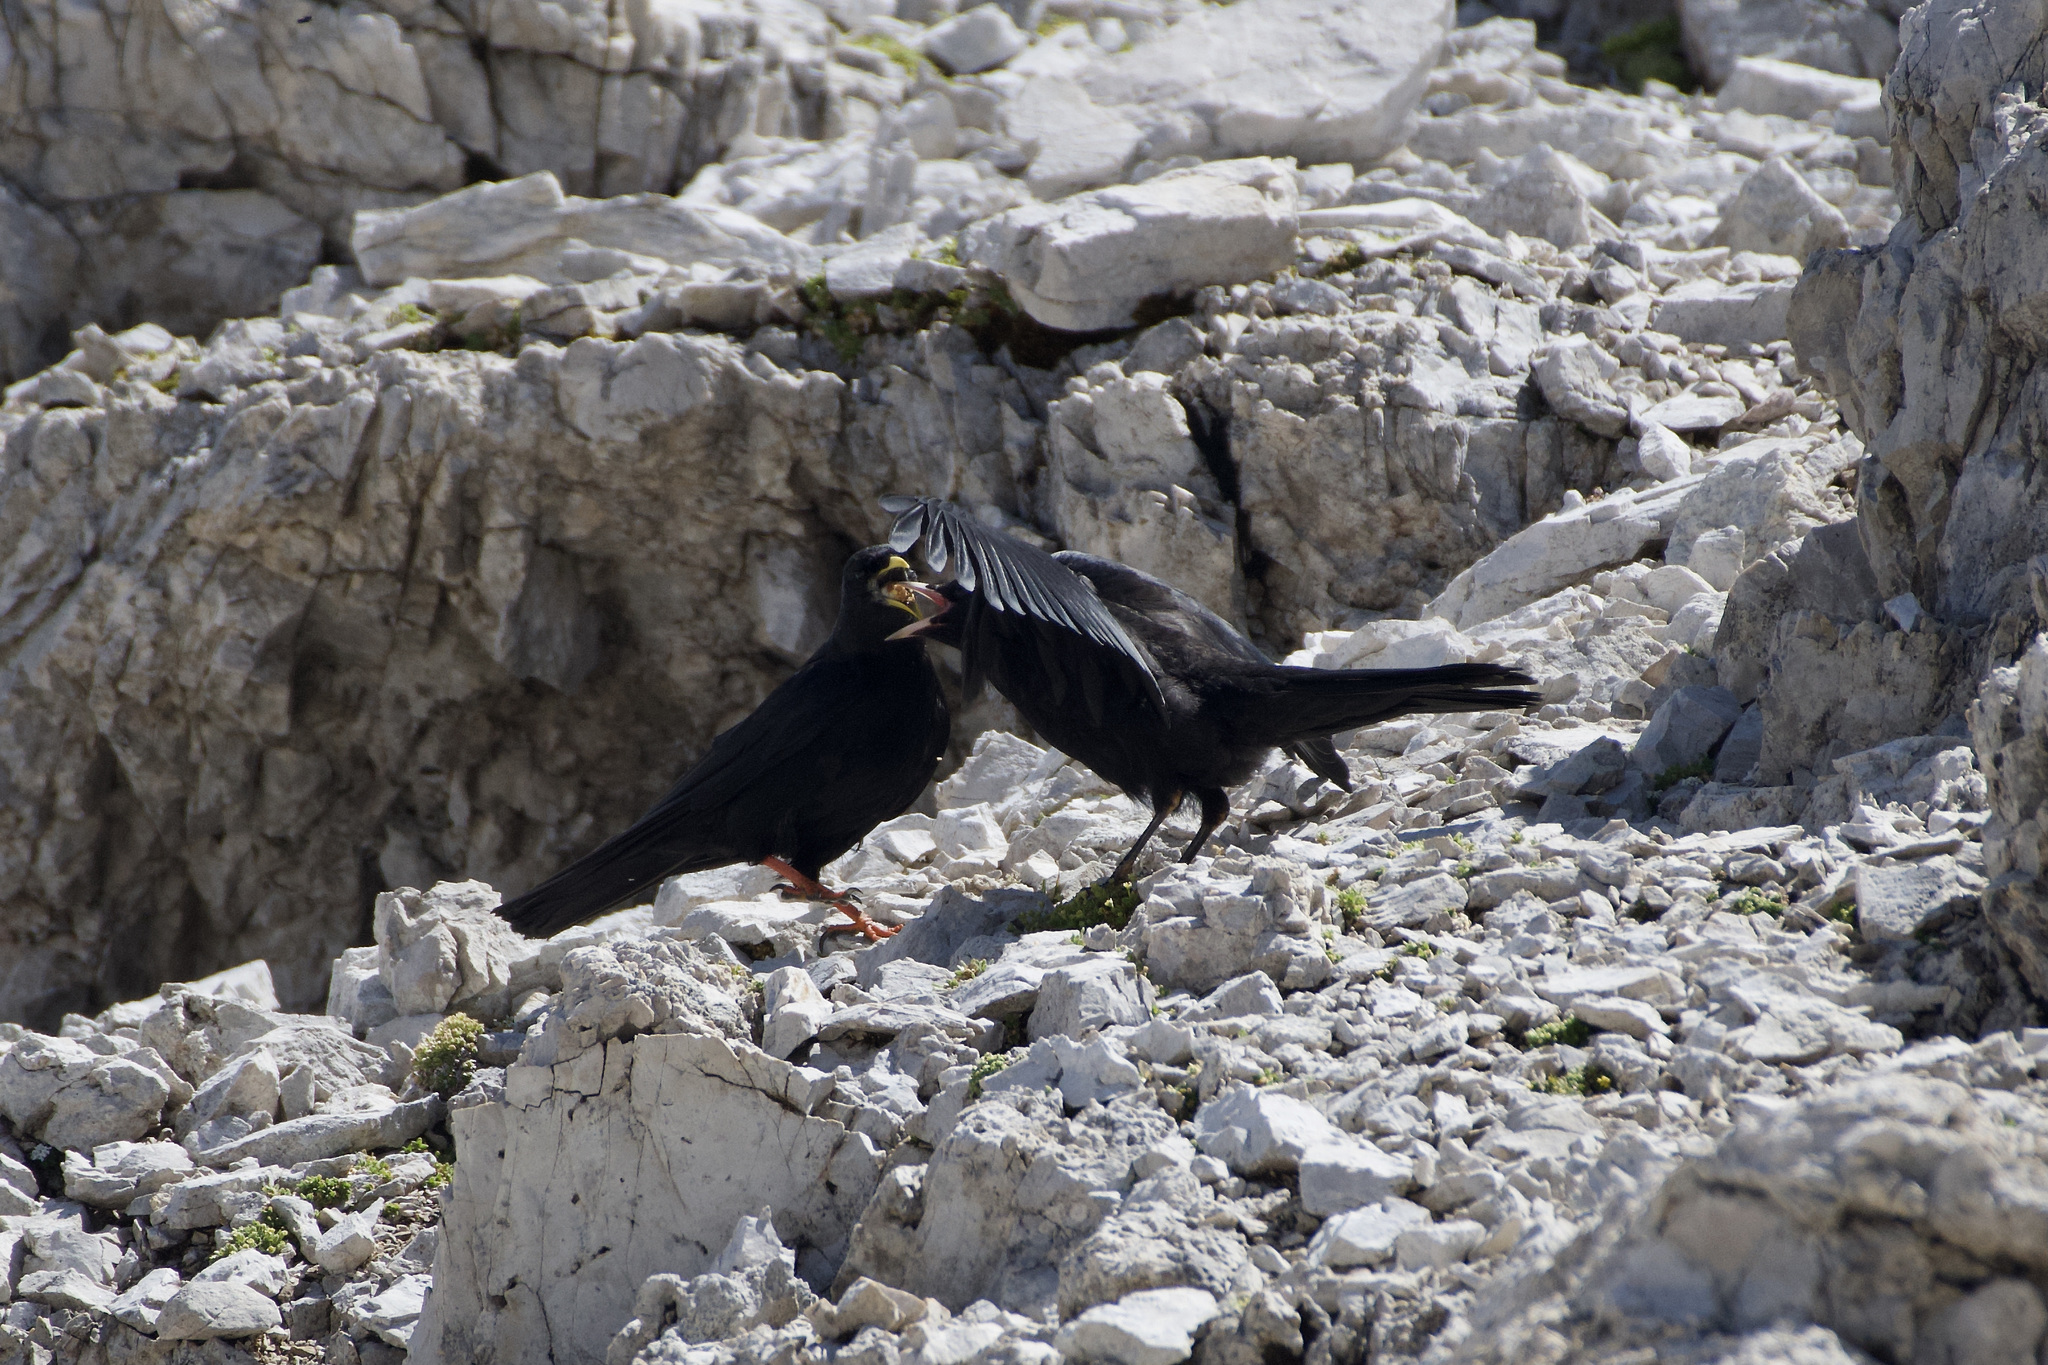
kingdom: Animalia
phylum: Chordata
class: Aves
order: Passeriformes
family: Corvidae
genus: Pyrrhocorax
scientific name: Pyrrhocorax graculus
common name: Alpine chough
